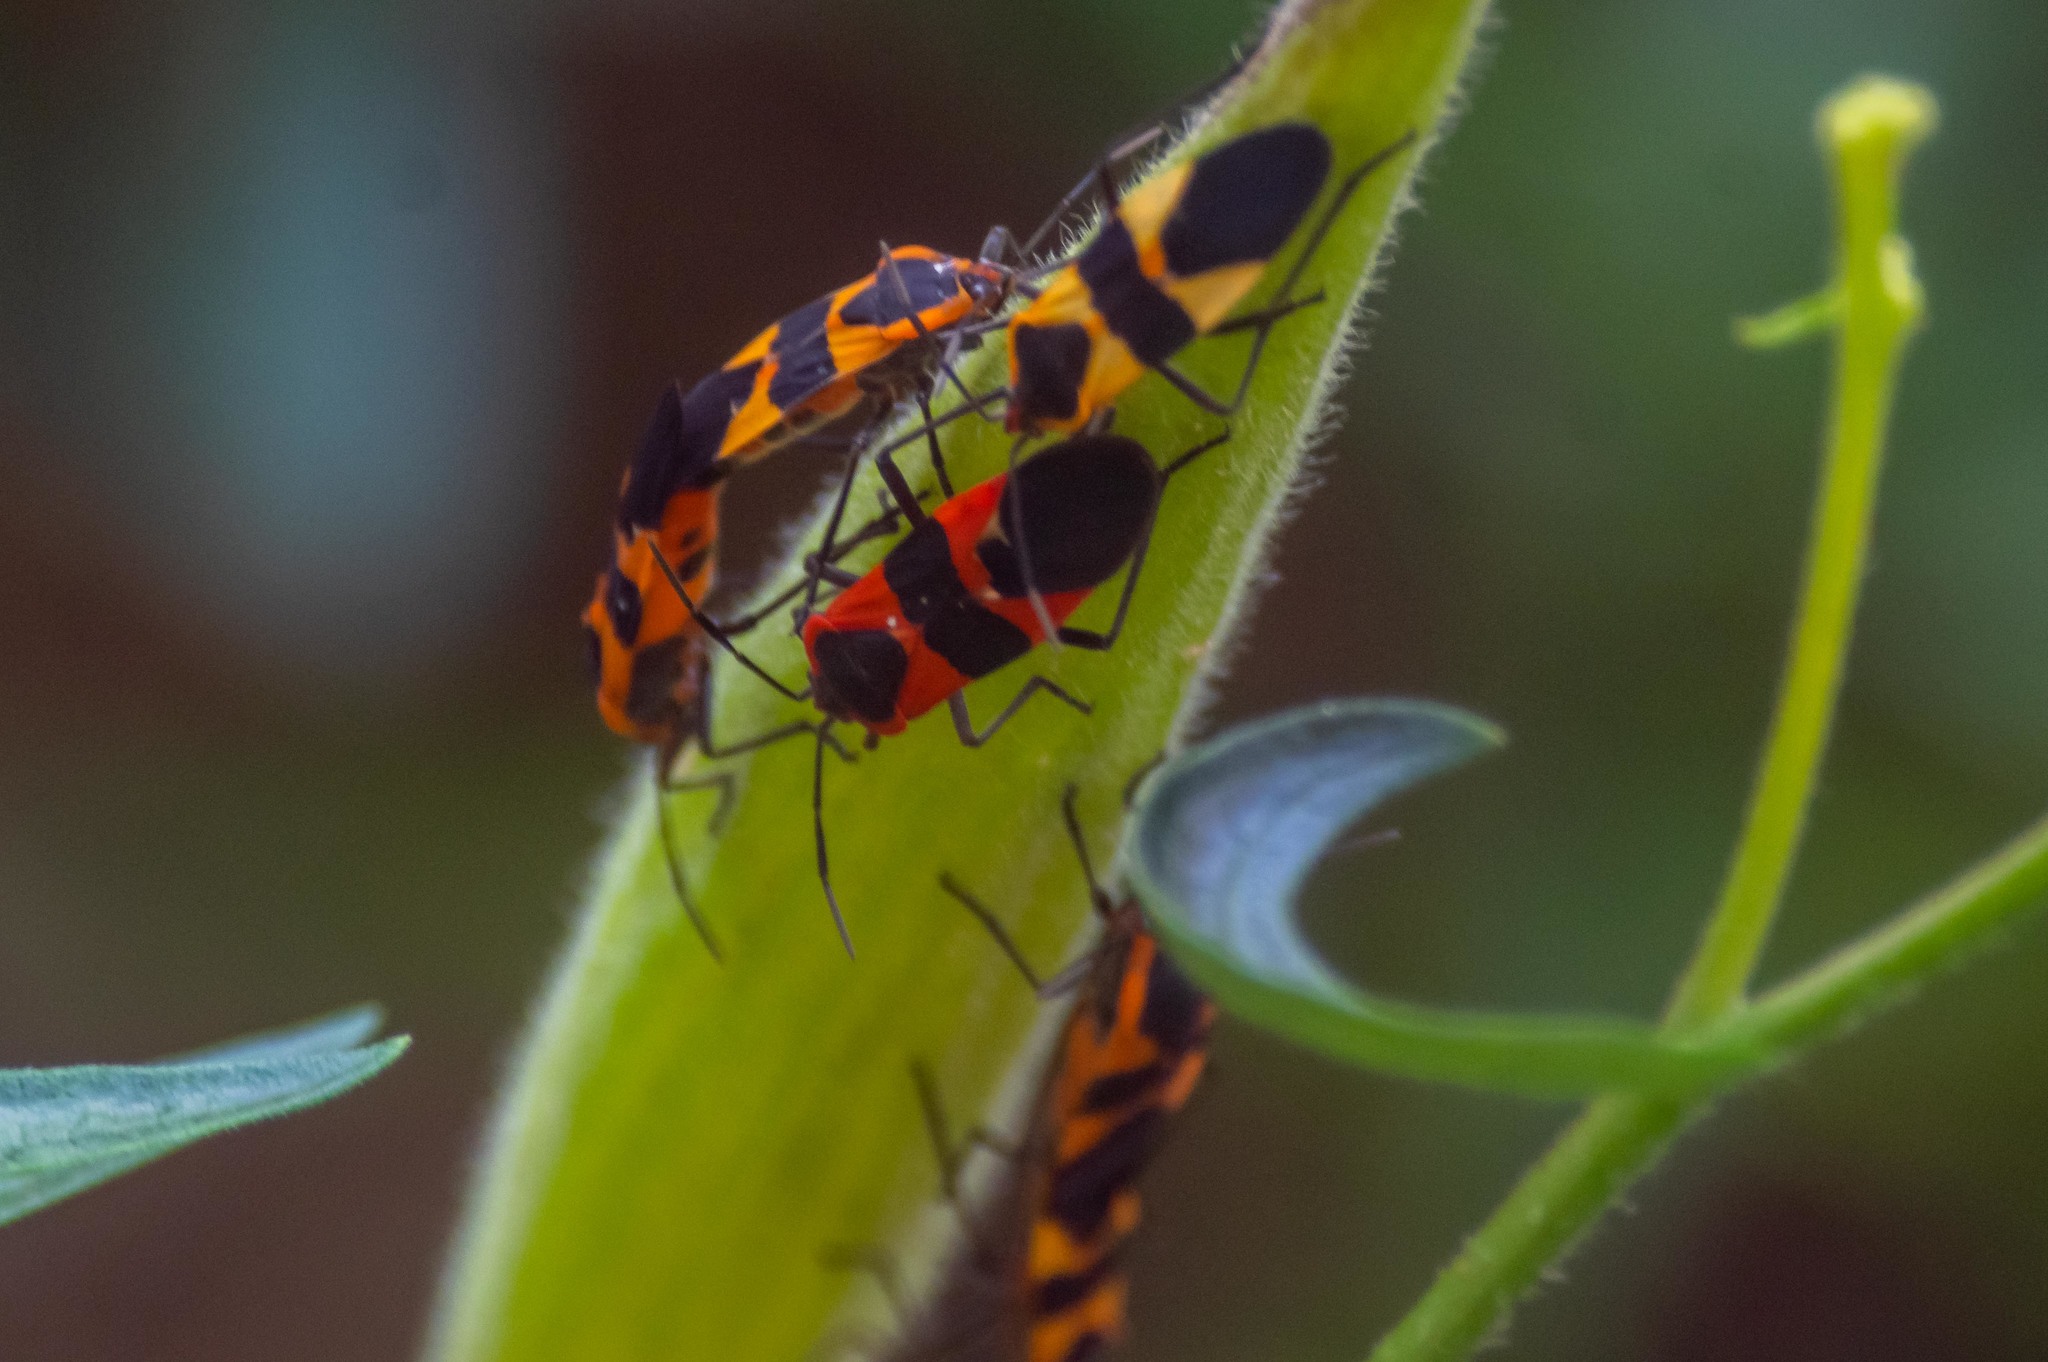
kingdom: Animalia
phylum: Arthropoda
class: Insecta
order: Hemiptera
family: Lygaeidae
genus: Oncopeltus
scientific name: Oncopeltus fasciatus
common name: Large milkweed bug
